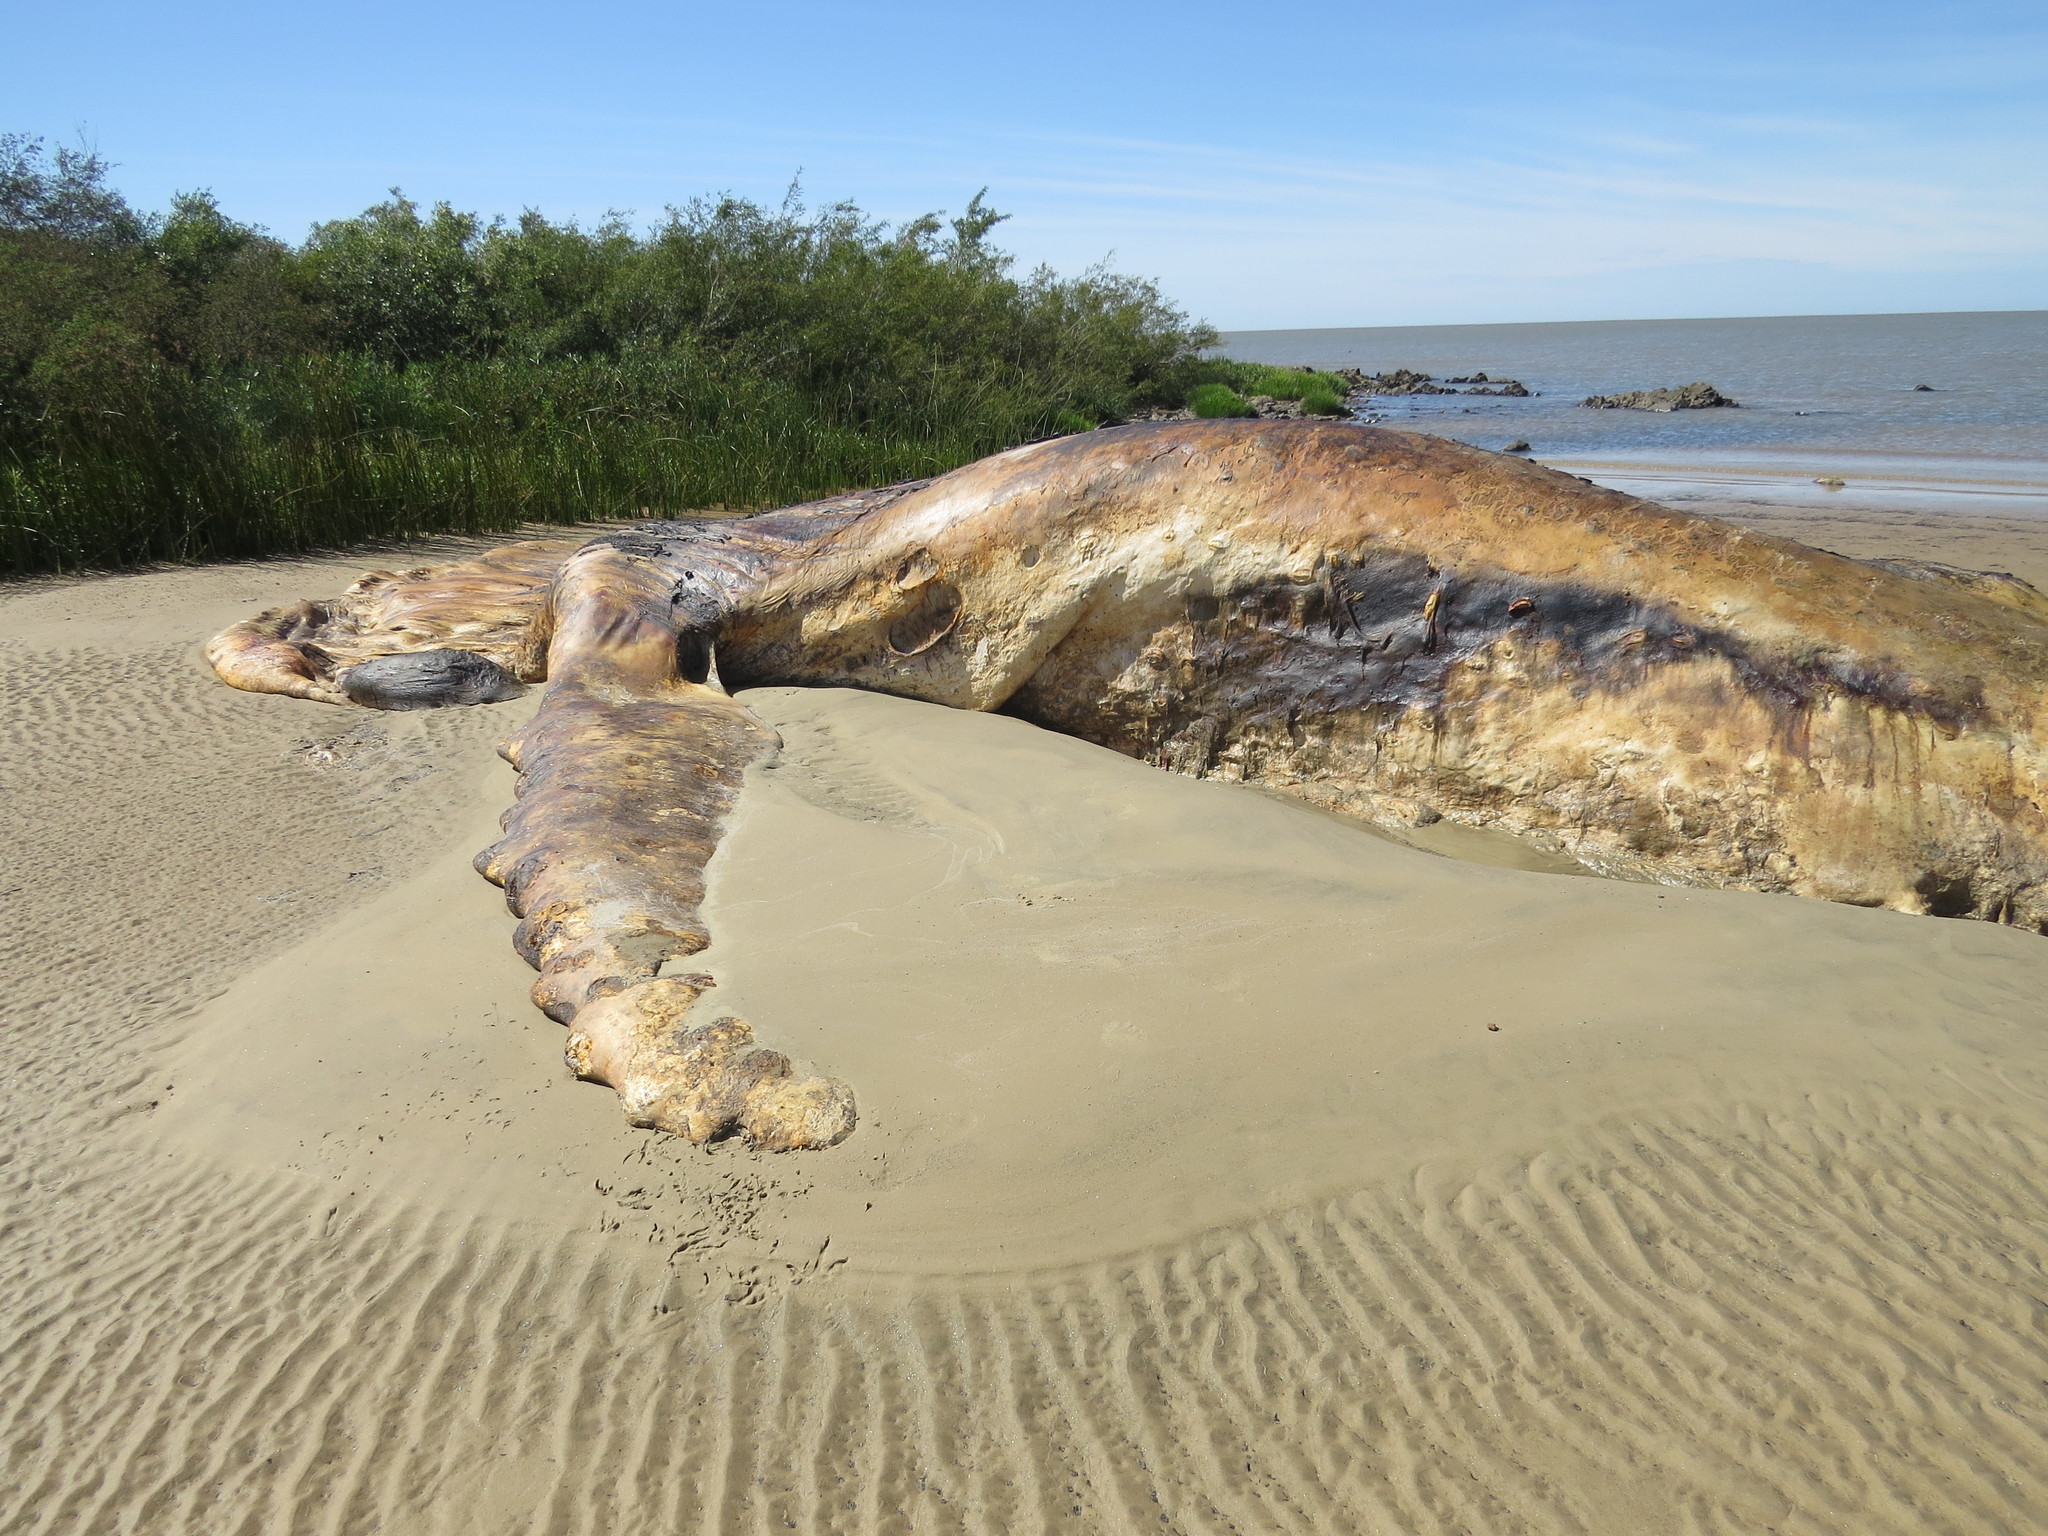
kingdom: Animalia
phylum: Chordata
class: Mammalia
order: Cetacea
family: Balaenopteridae
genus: Megaptera
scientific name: Megaptera novaeangliae
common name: Humpback whale
